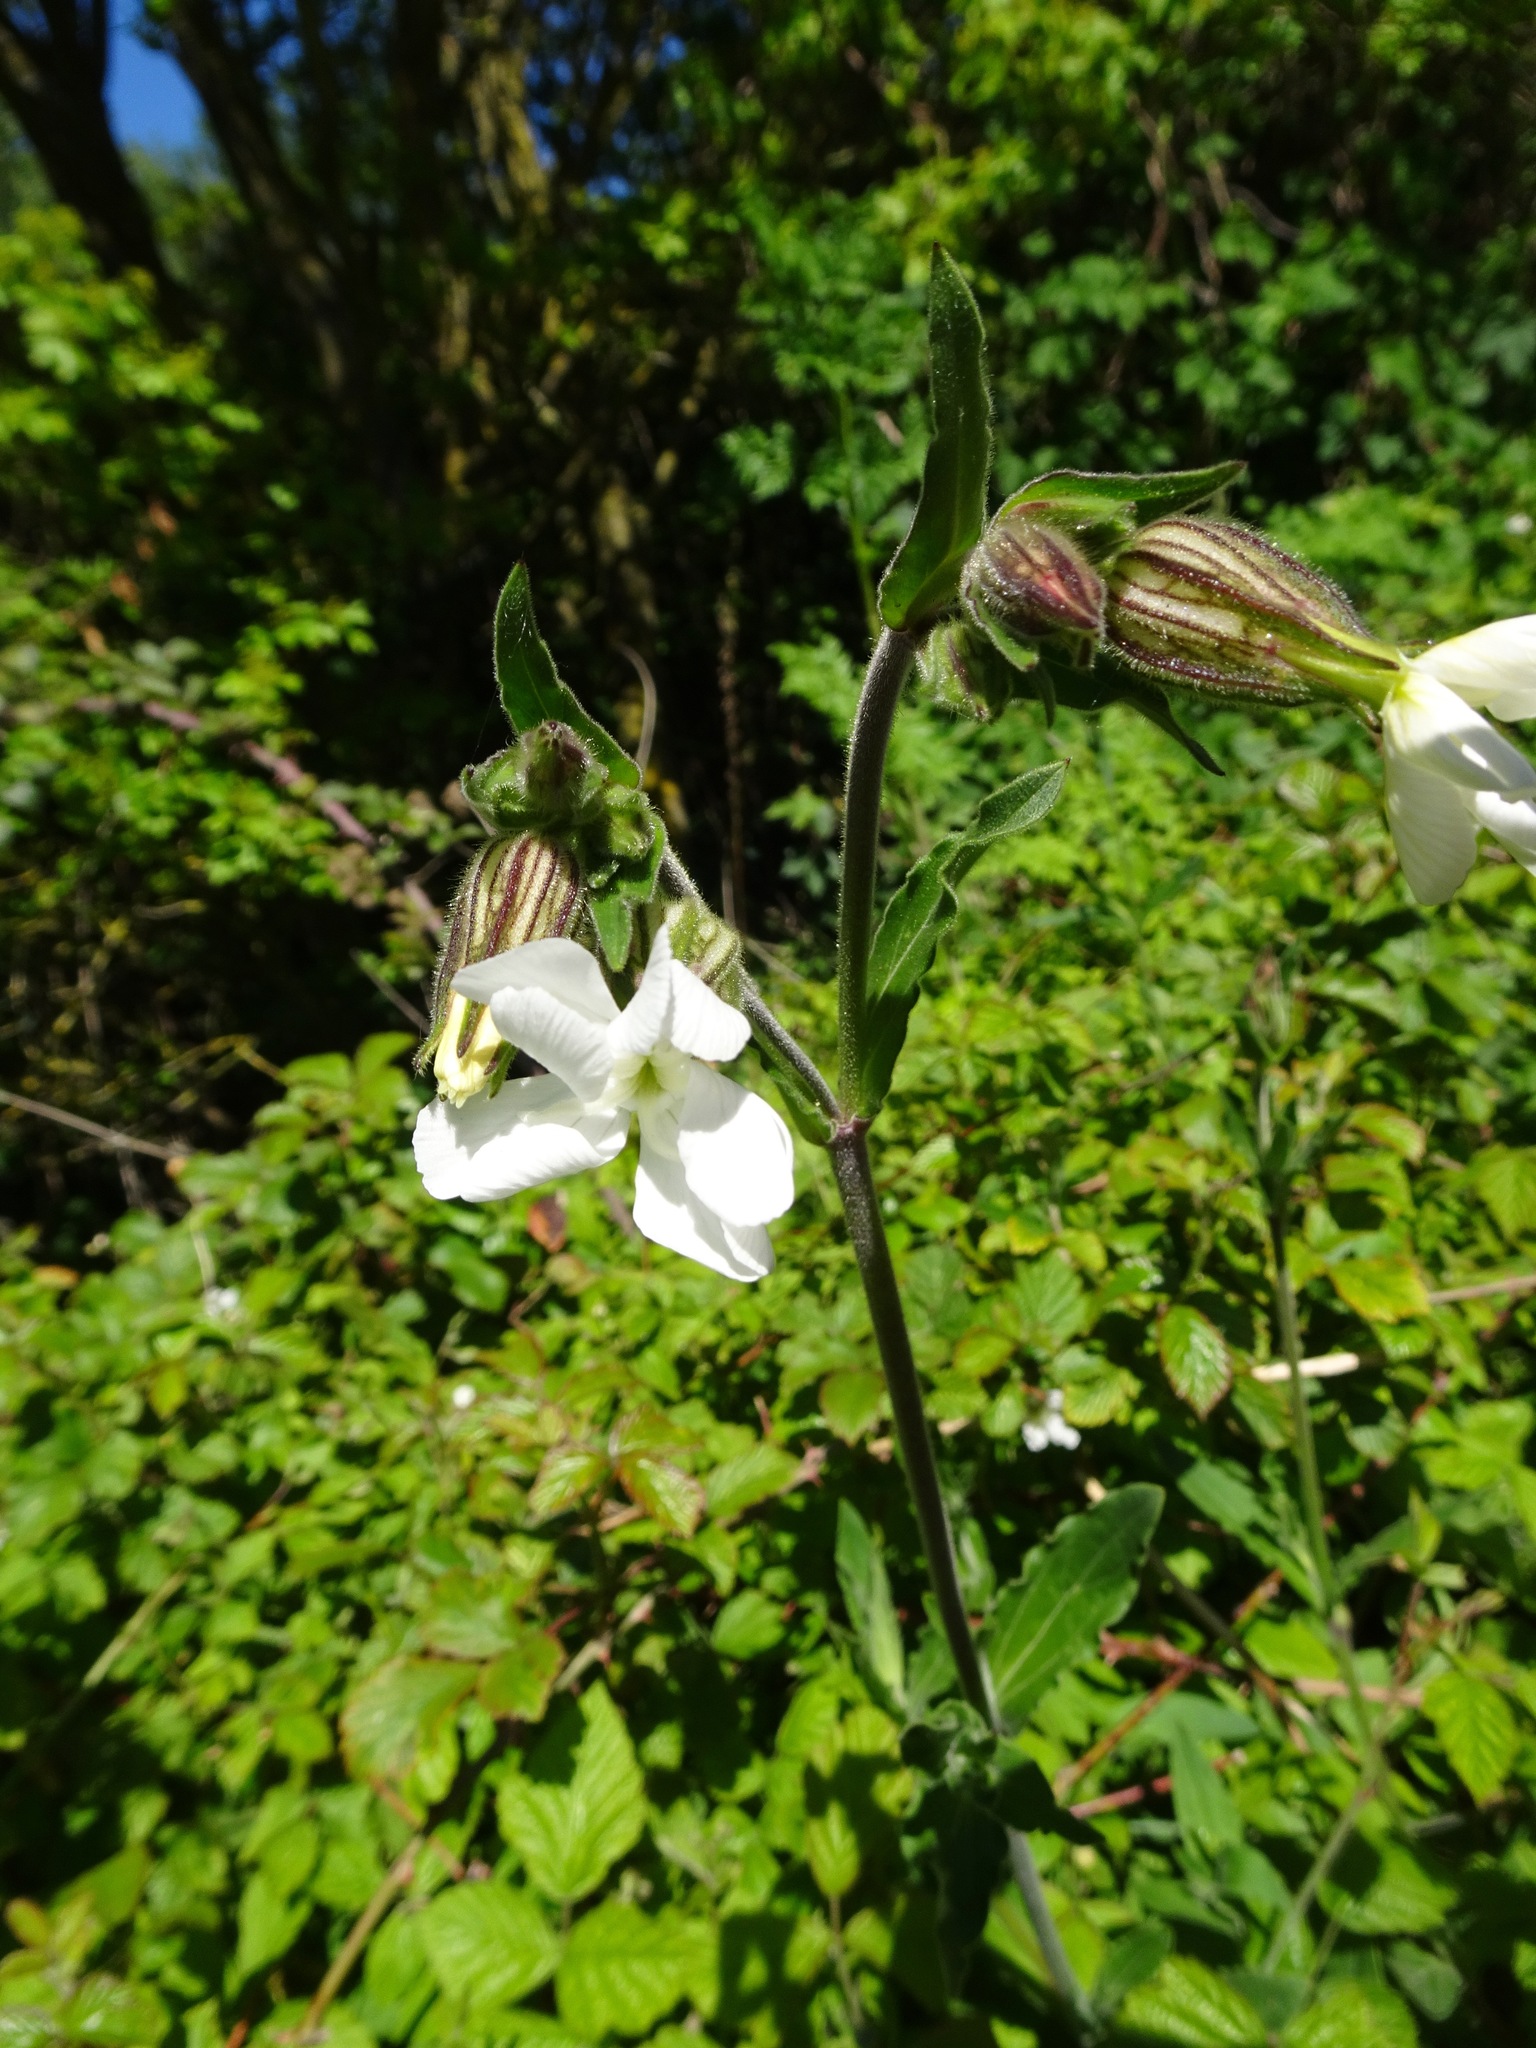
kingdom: Plantae
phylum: Tracheophyta
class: Magnoliopsida
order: Caryophyllales
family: Caryophyllaceae
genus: Silene
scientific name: Silene latifolia
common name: White campion
